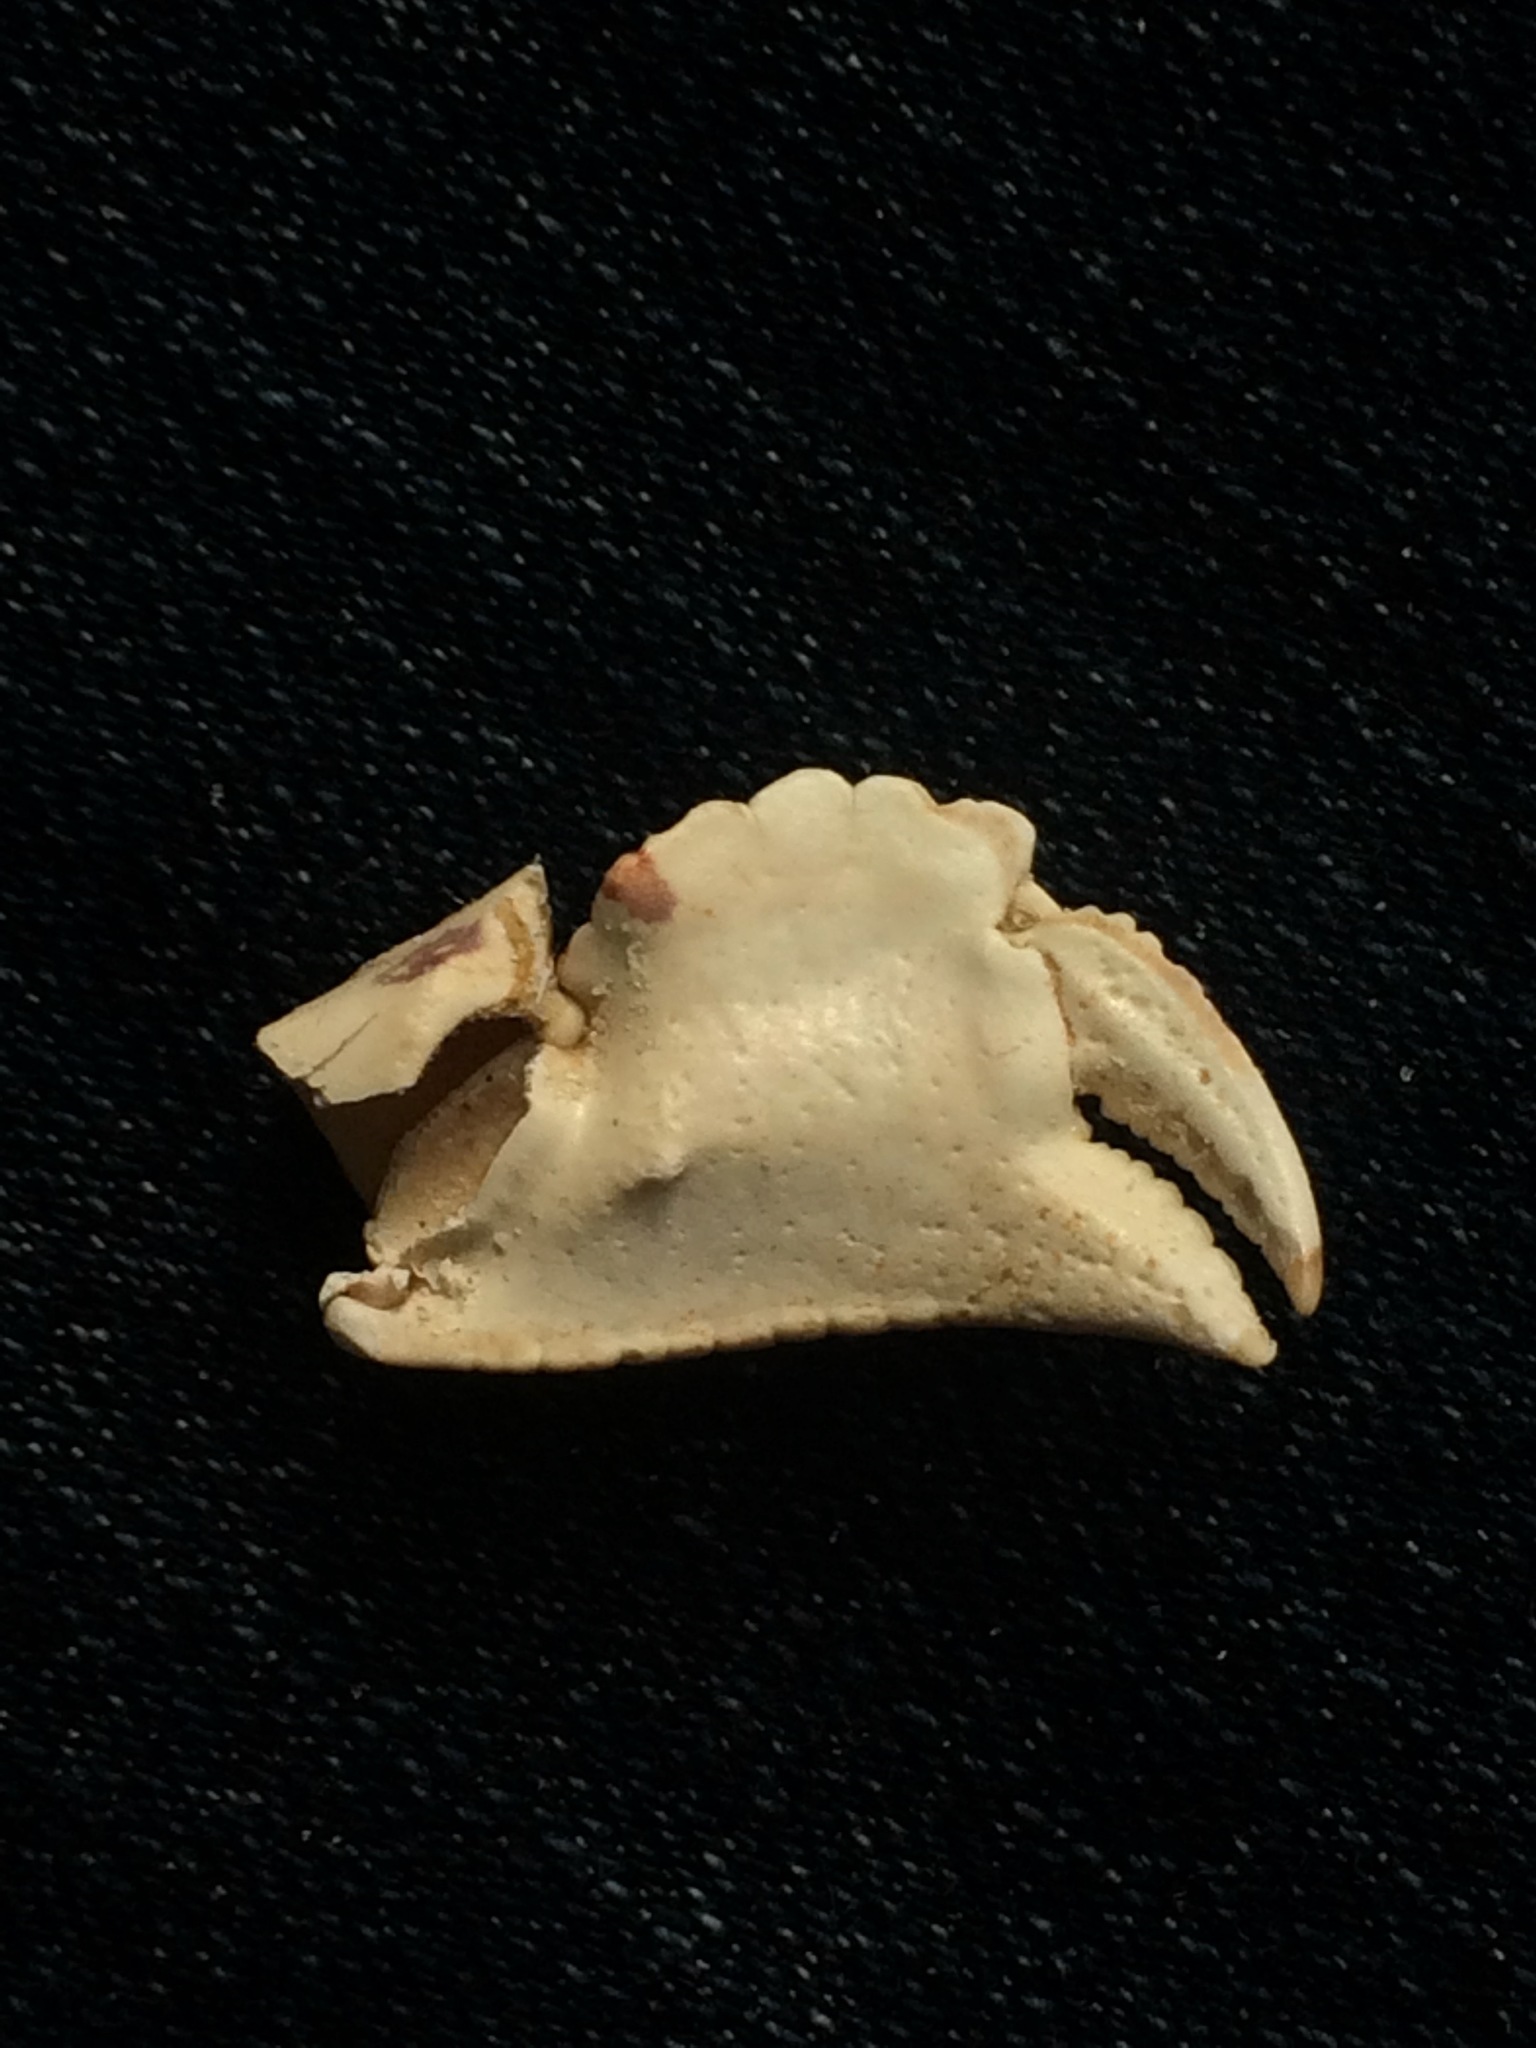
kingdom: Animalia
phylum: Arthropoda
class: Malacostraca
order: Decapoda
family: Aethridae
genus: Hepatus
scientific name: Hepatus epheliticus
